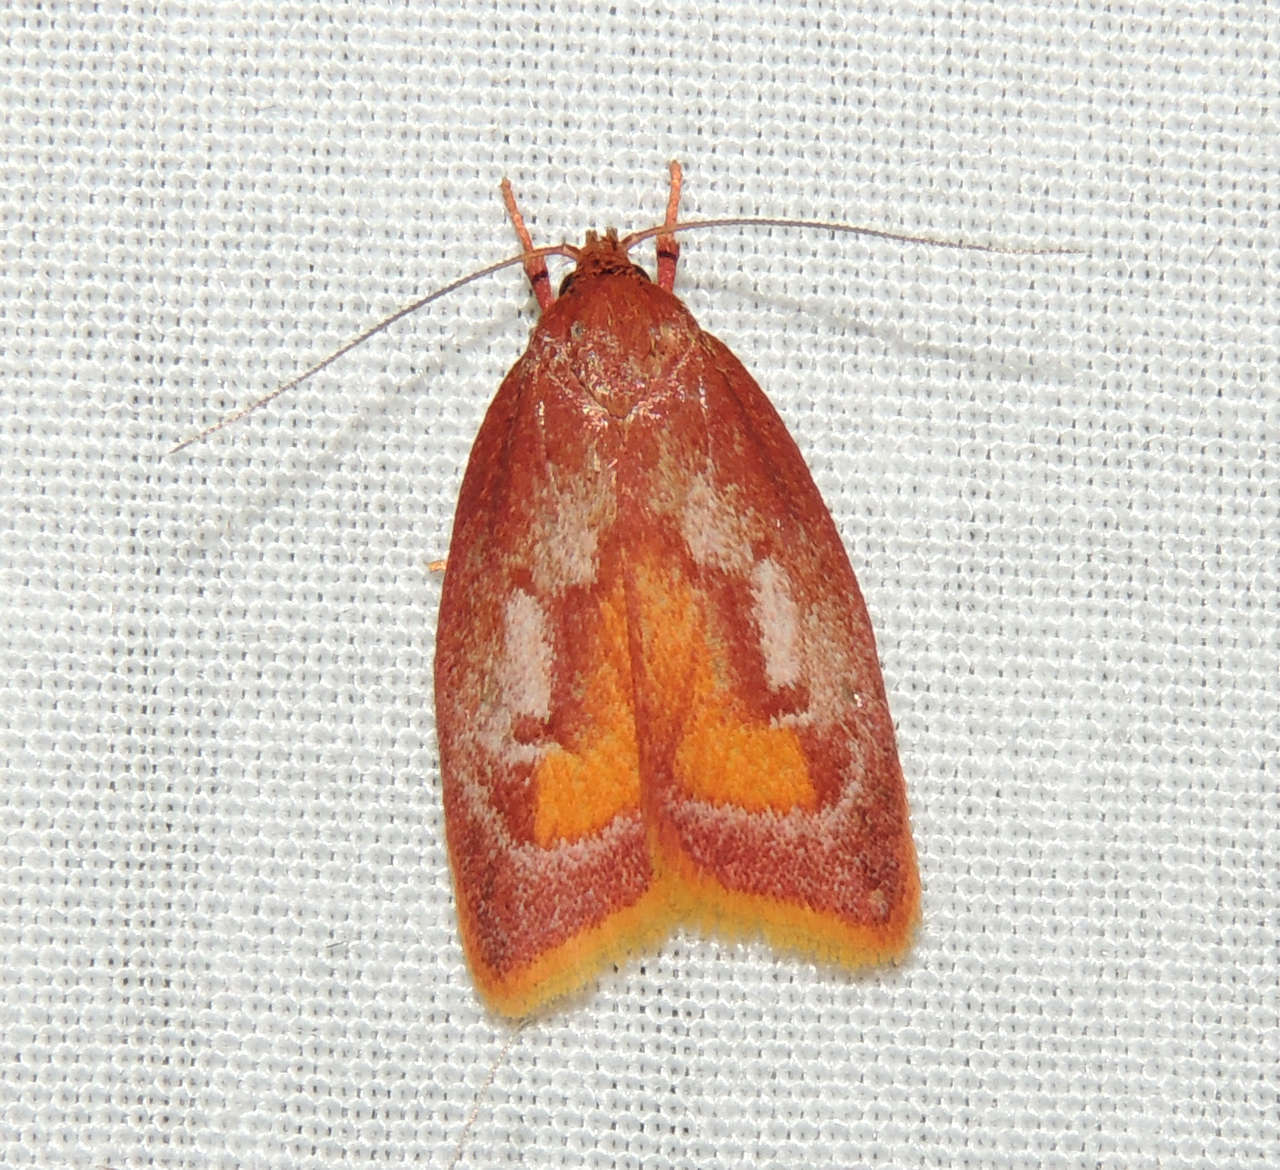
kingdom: Animalia
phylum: Arthropoda
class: Insecta
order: Lepidoptera
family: Oecophoridae
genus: Epicurica
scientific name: Epicurica laetiferanus
